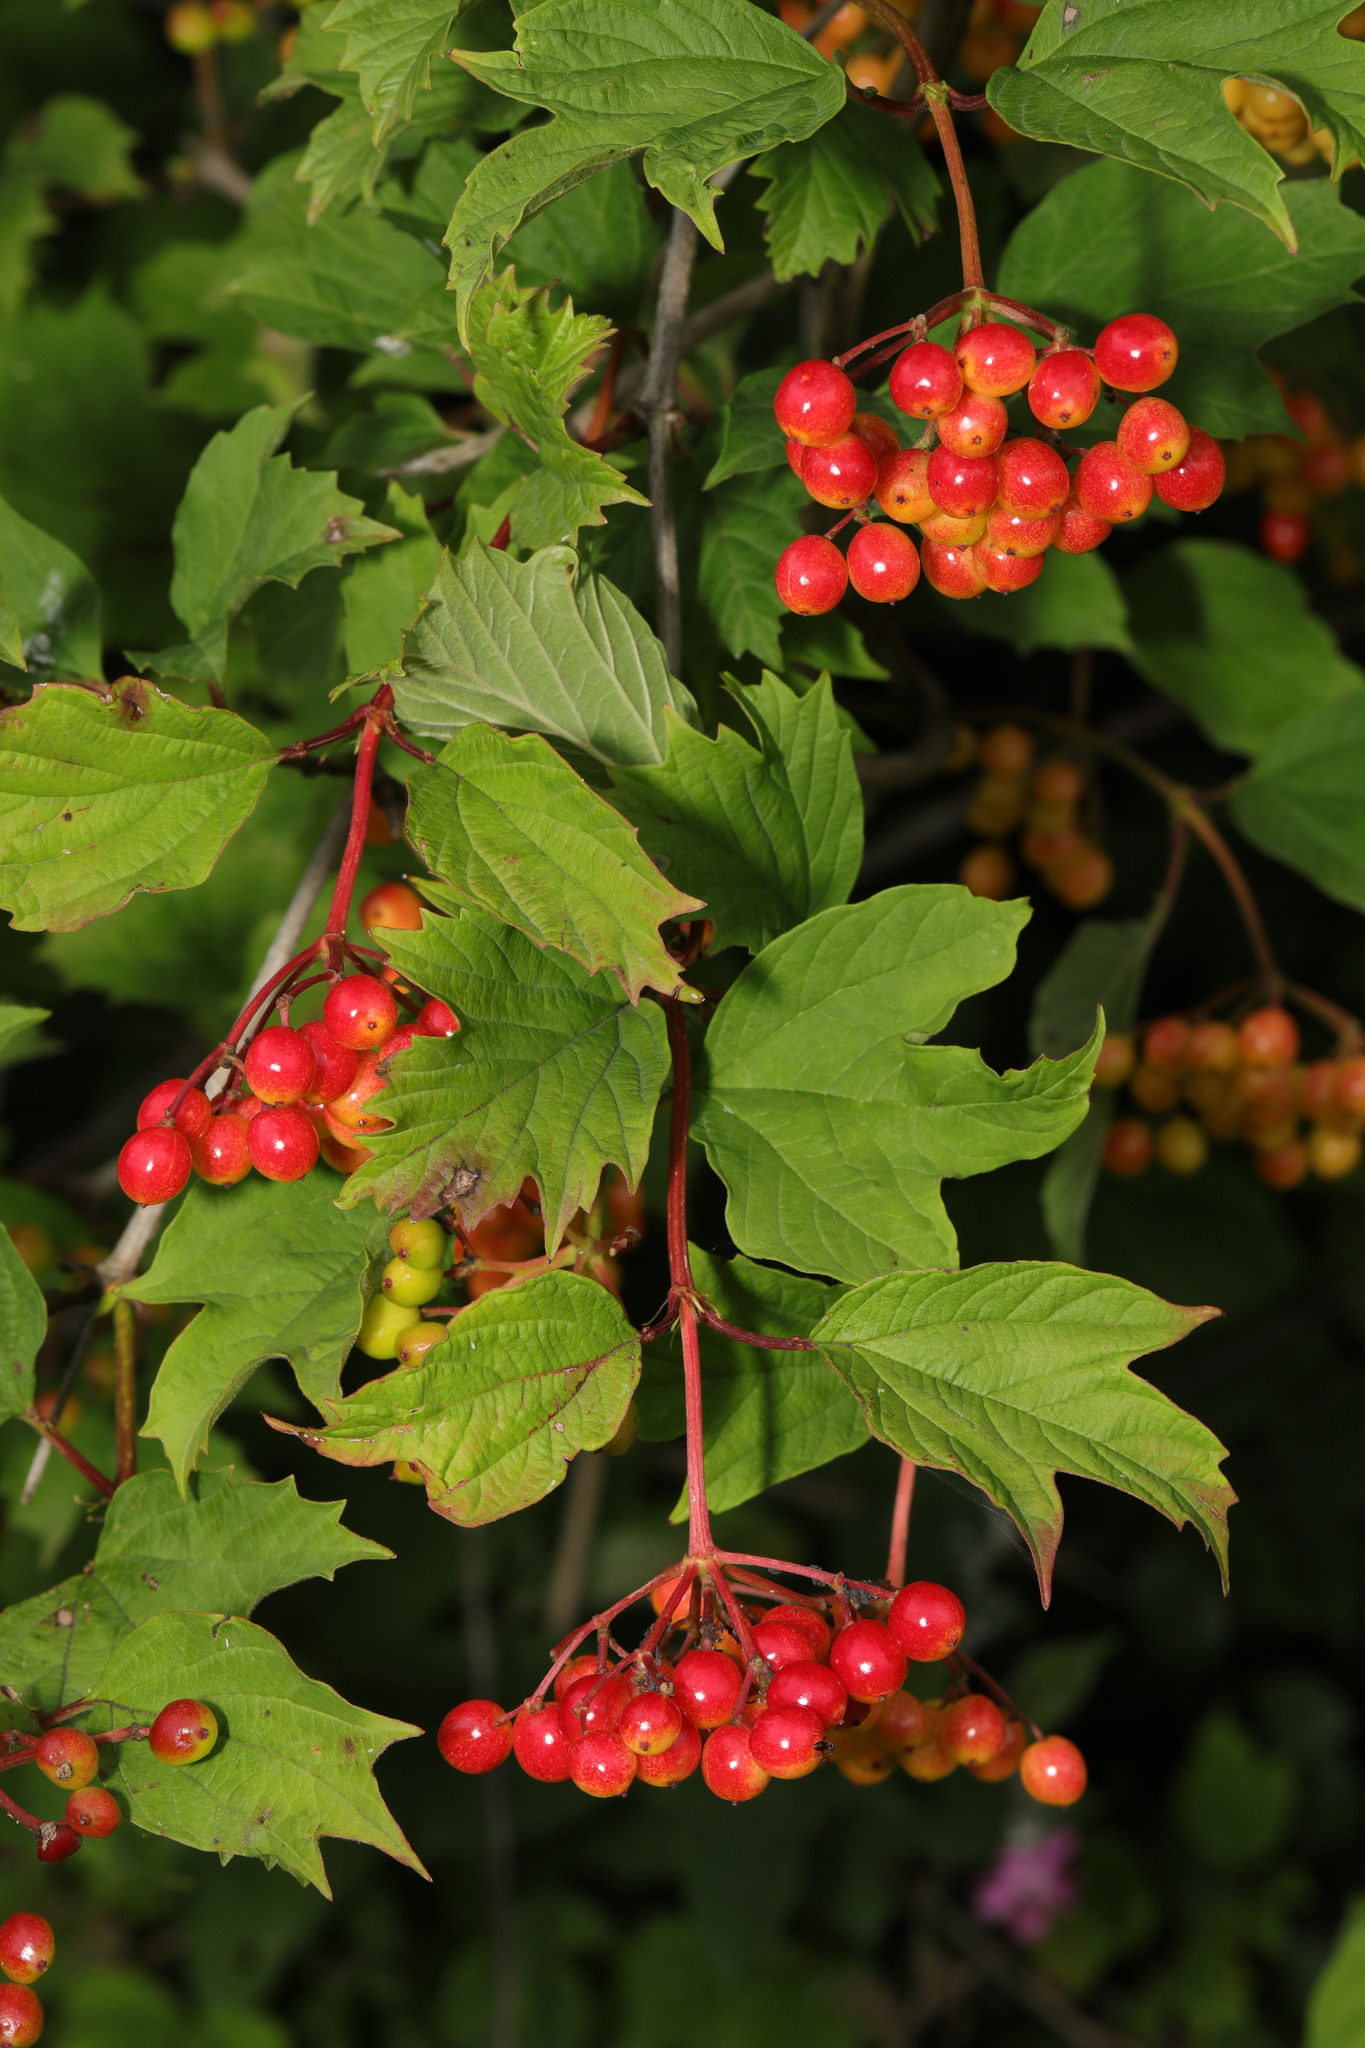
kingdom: Plantae
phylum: Tracheophyta
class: Magnoliopsida
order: Dipsacales
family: Viburnaceae
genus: Viburnum
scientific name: Viburnum opulus
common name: Guelder-rose
